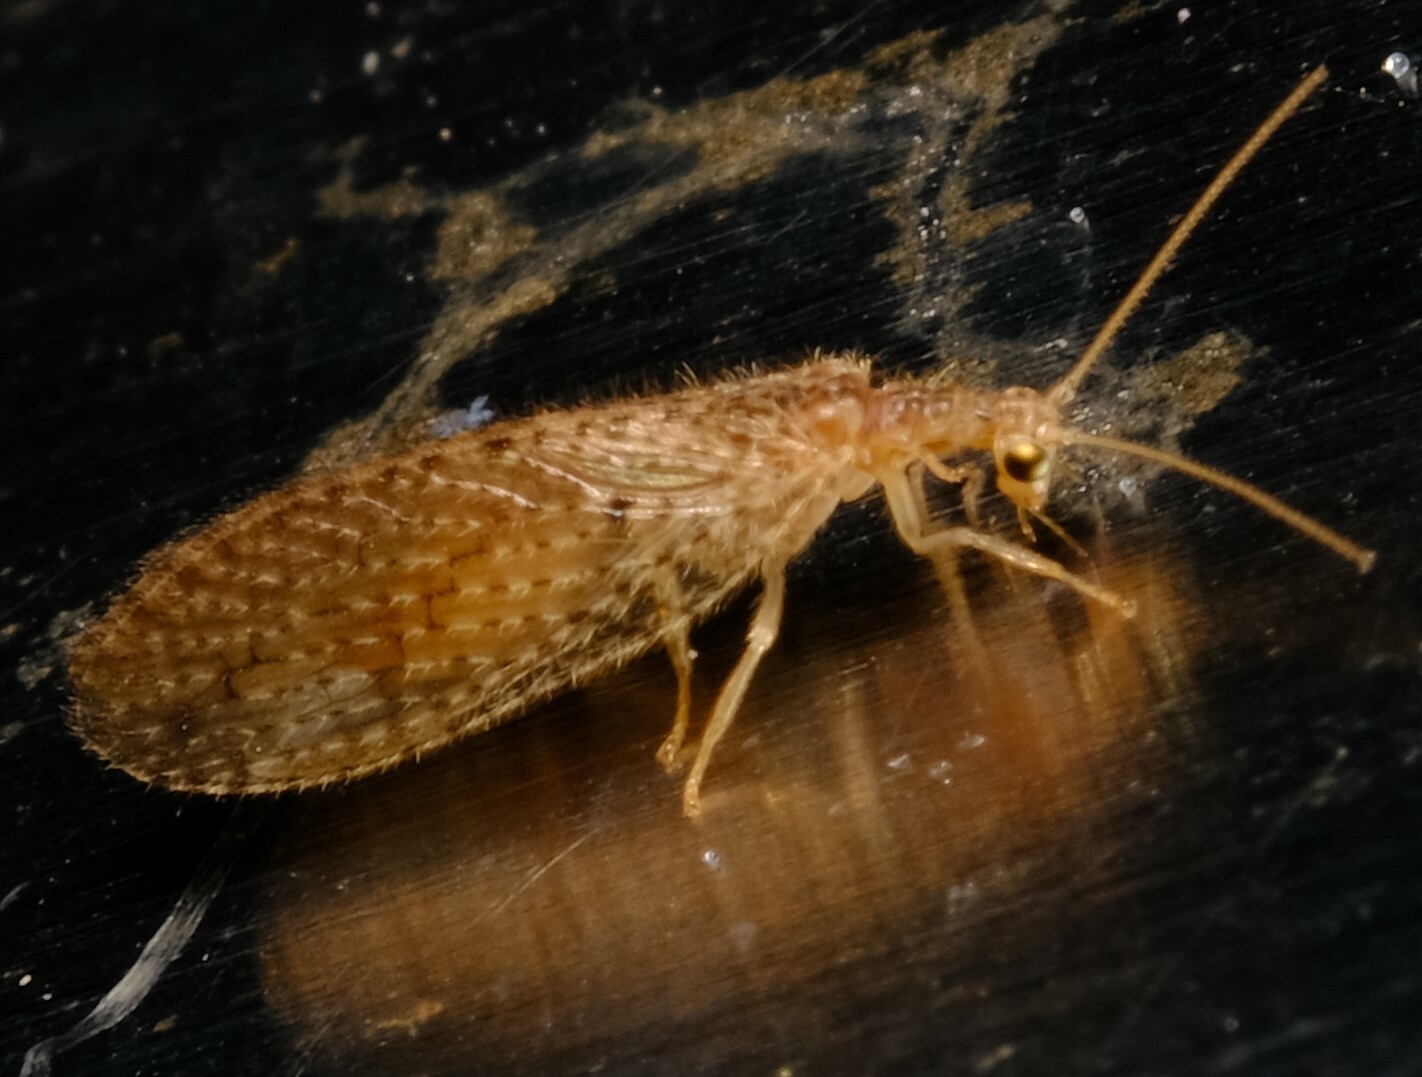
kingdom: Animalia
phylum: Arthropoda
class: Insecta
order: Neuroptera
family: Hemerobiidae
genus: Micromus
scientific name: Micromus tasmaniae
